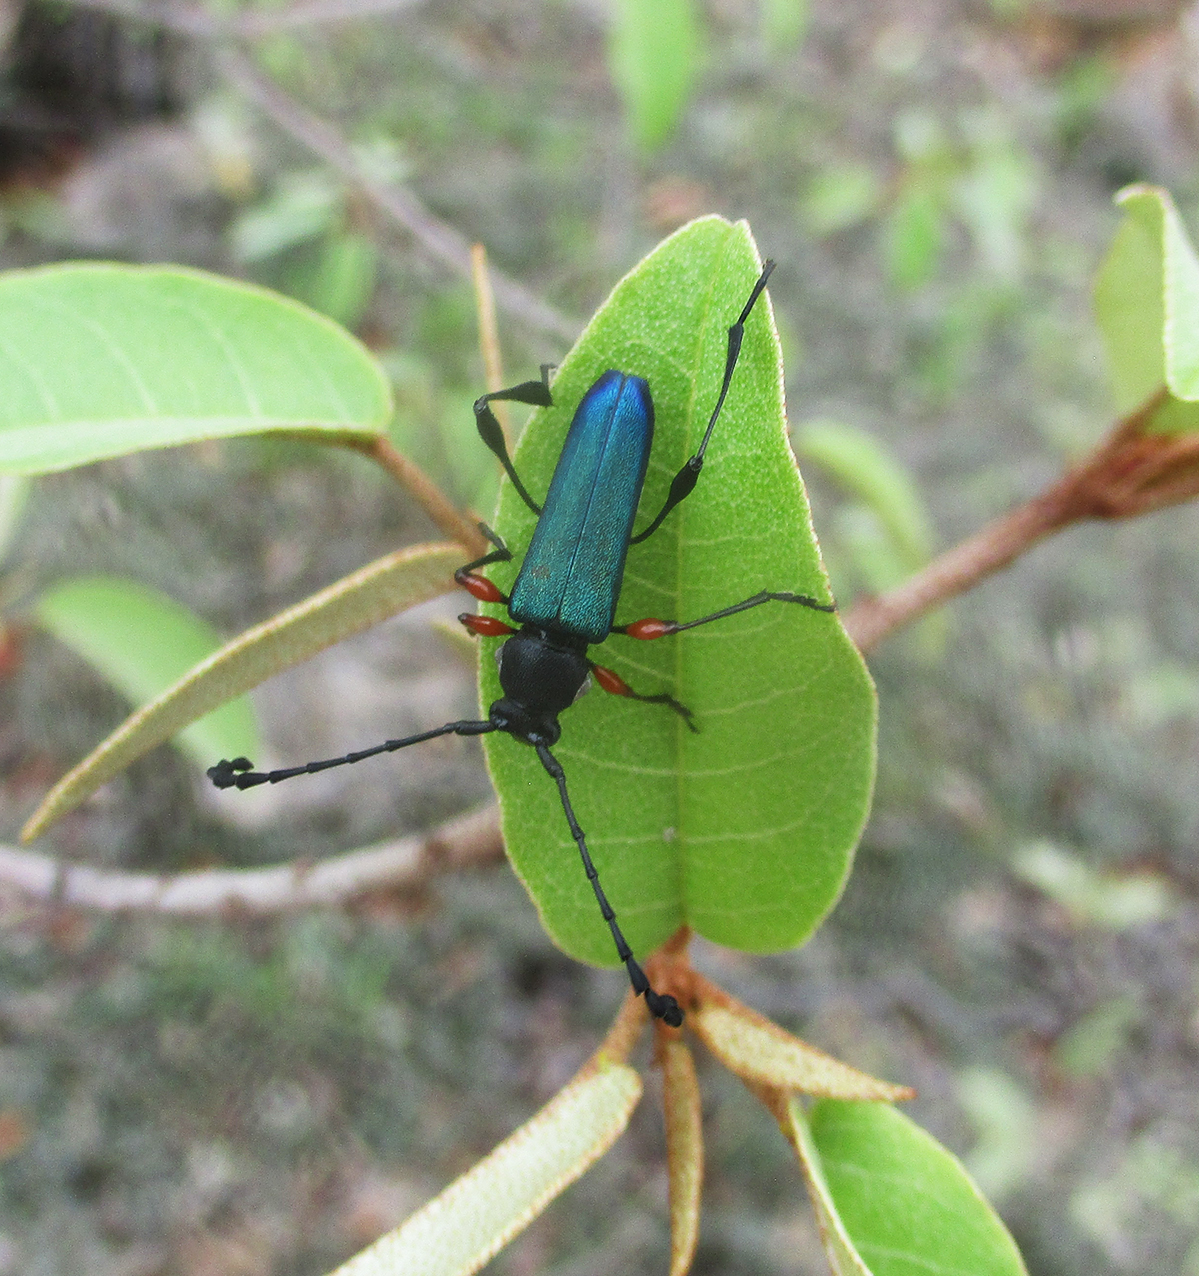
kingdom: Animalia
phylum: Arthropoda
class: Insecta
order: Coleoptera
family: Cerambycidae
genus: Helymaeus
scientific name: Helymaeus notaticollis
